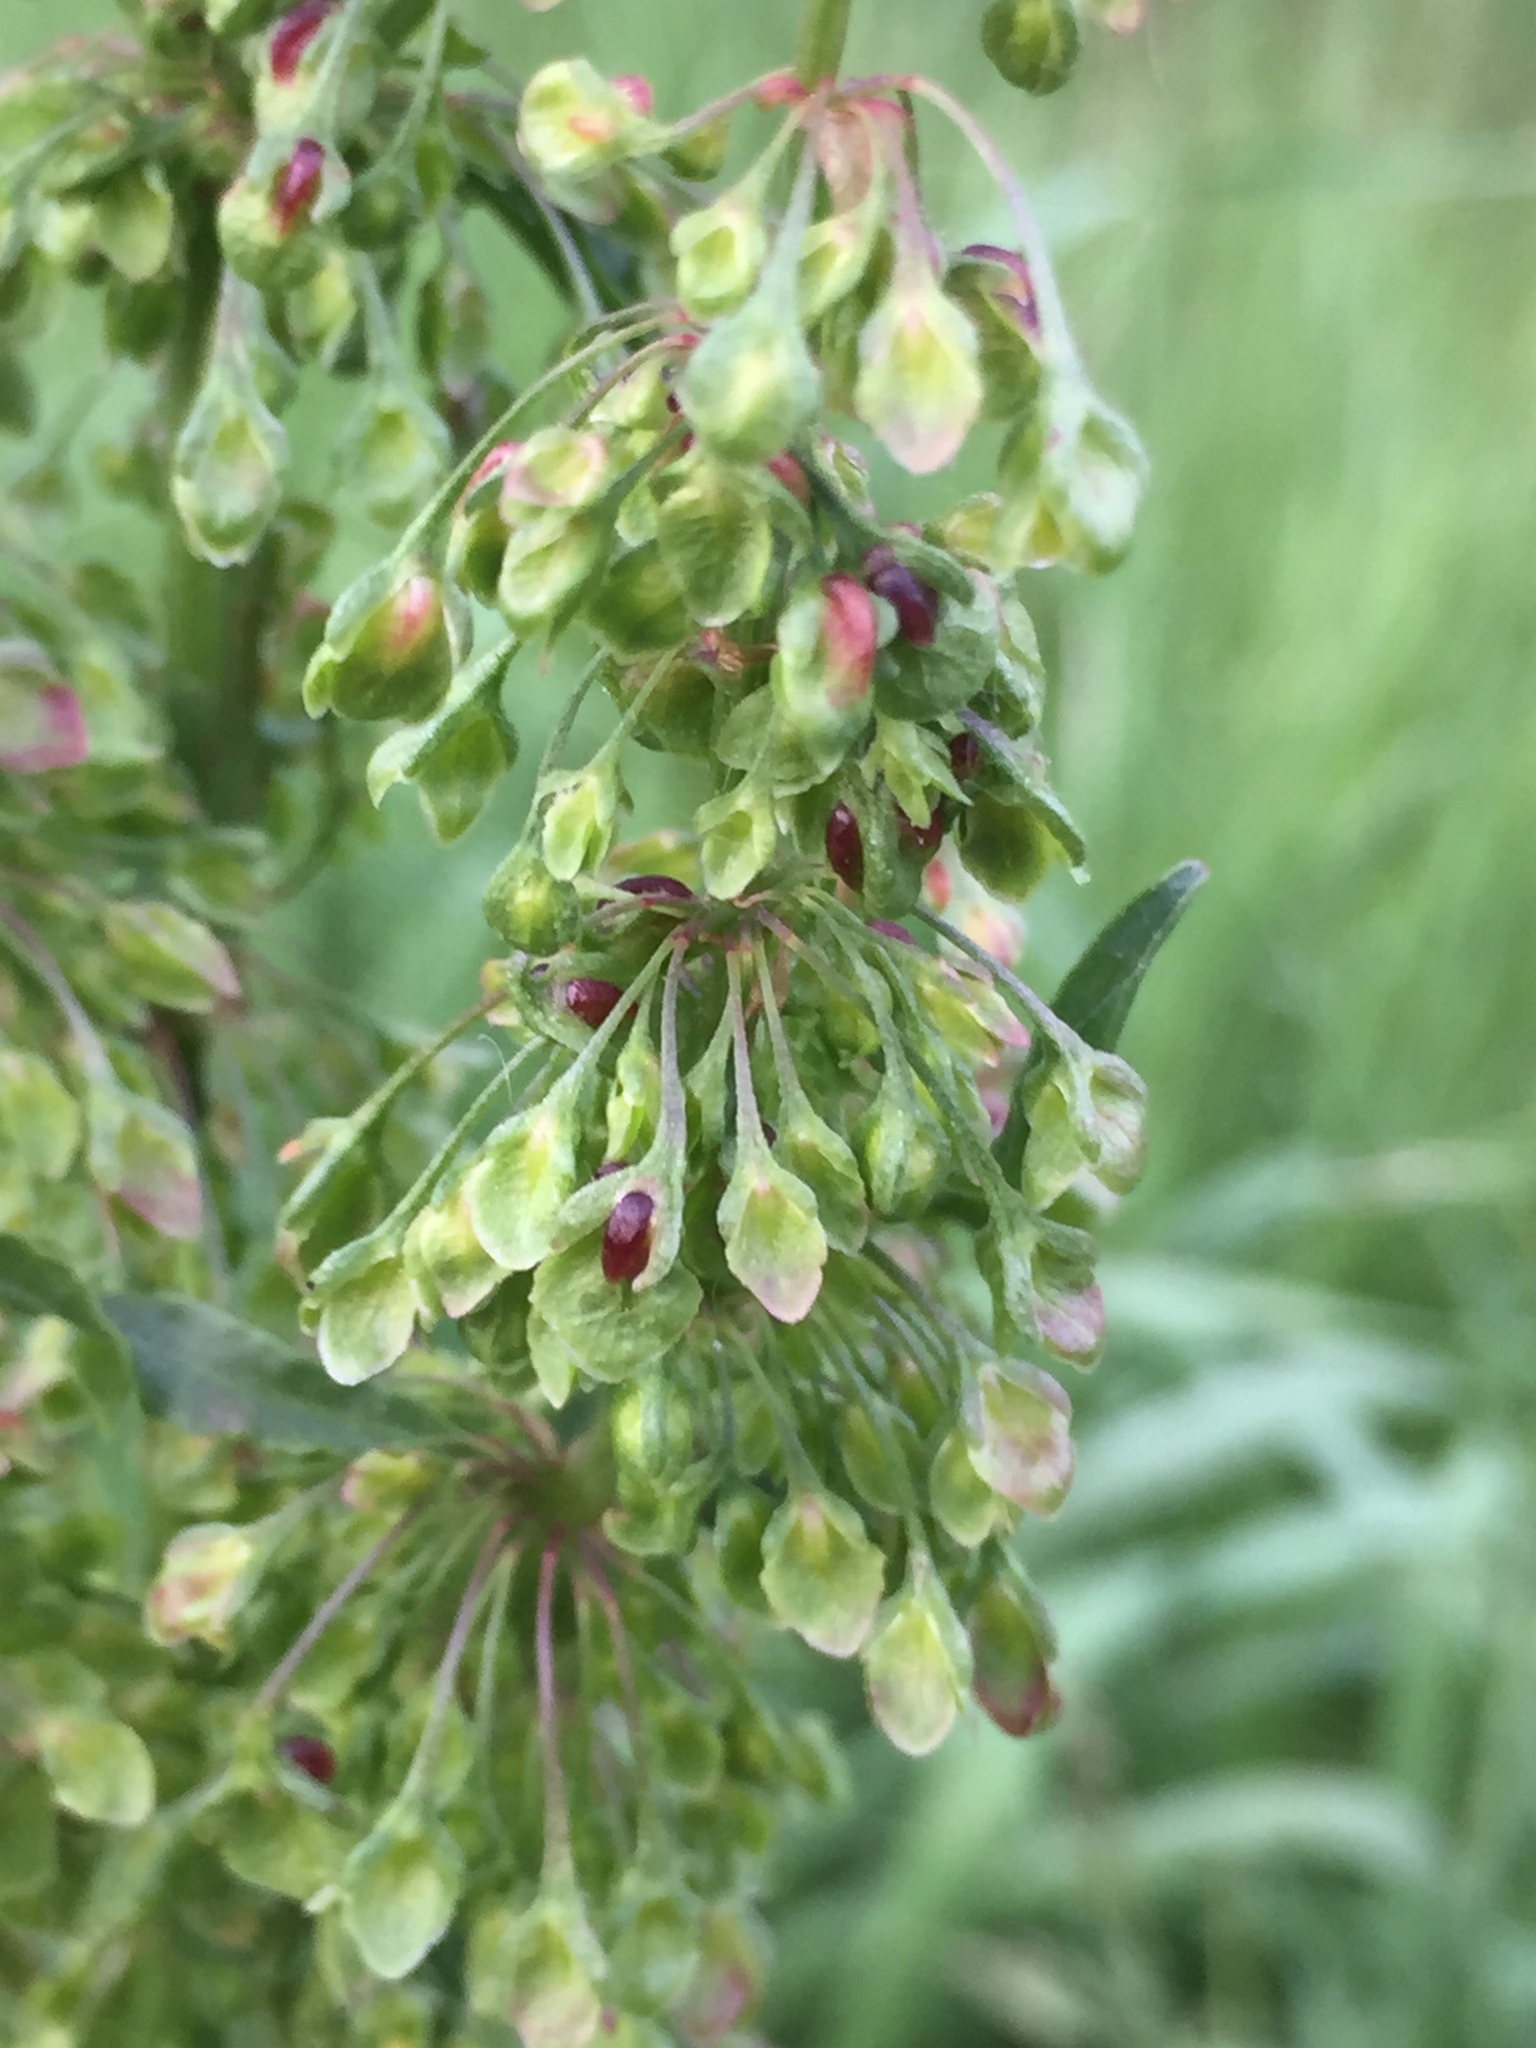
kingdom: Plantae
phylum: Tracheophyta
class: Magnoliopsida
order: Caryophyllales
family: Polygonaceae
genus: Rumex
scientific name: Rumex crispus
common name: Curled dock
